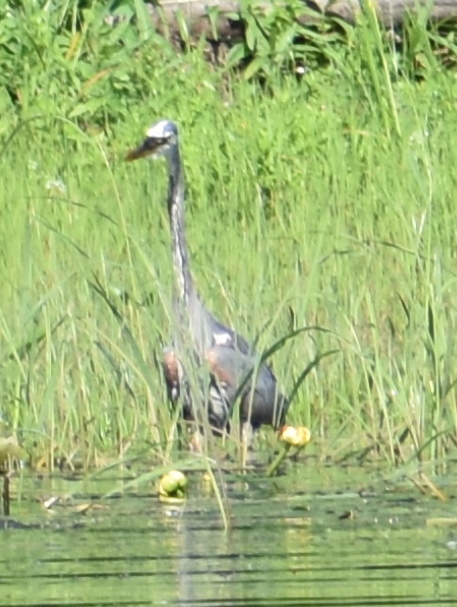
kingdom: Animalia
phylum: Chordata
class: Aves
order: Pelecaniformes
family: Ardeidae
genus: Ardea
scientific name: Ardea herodias
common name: Great blue heron
